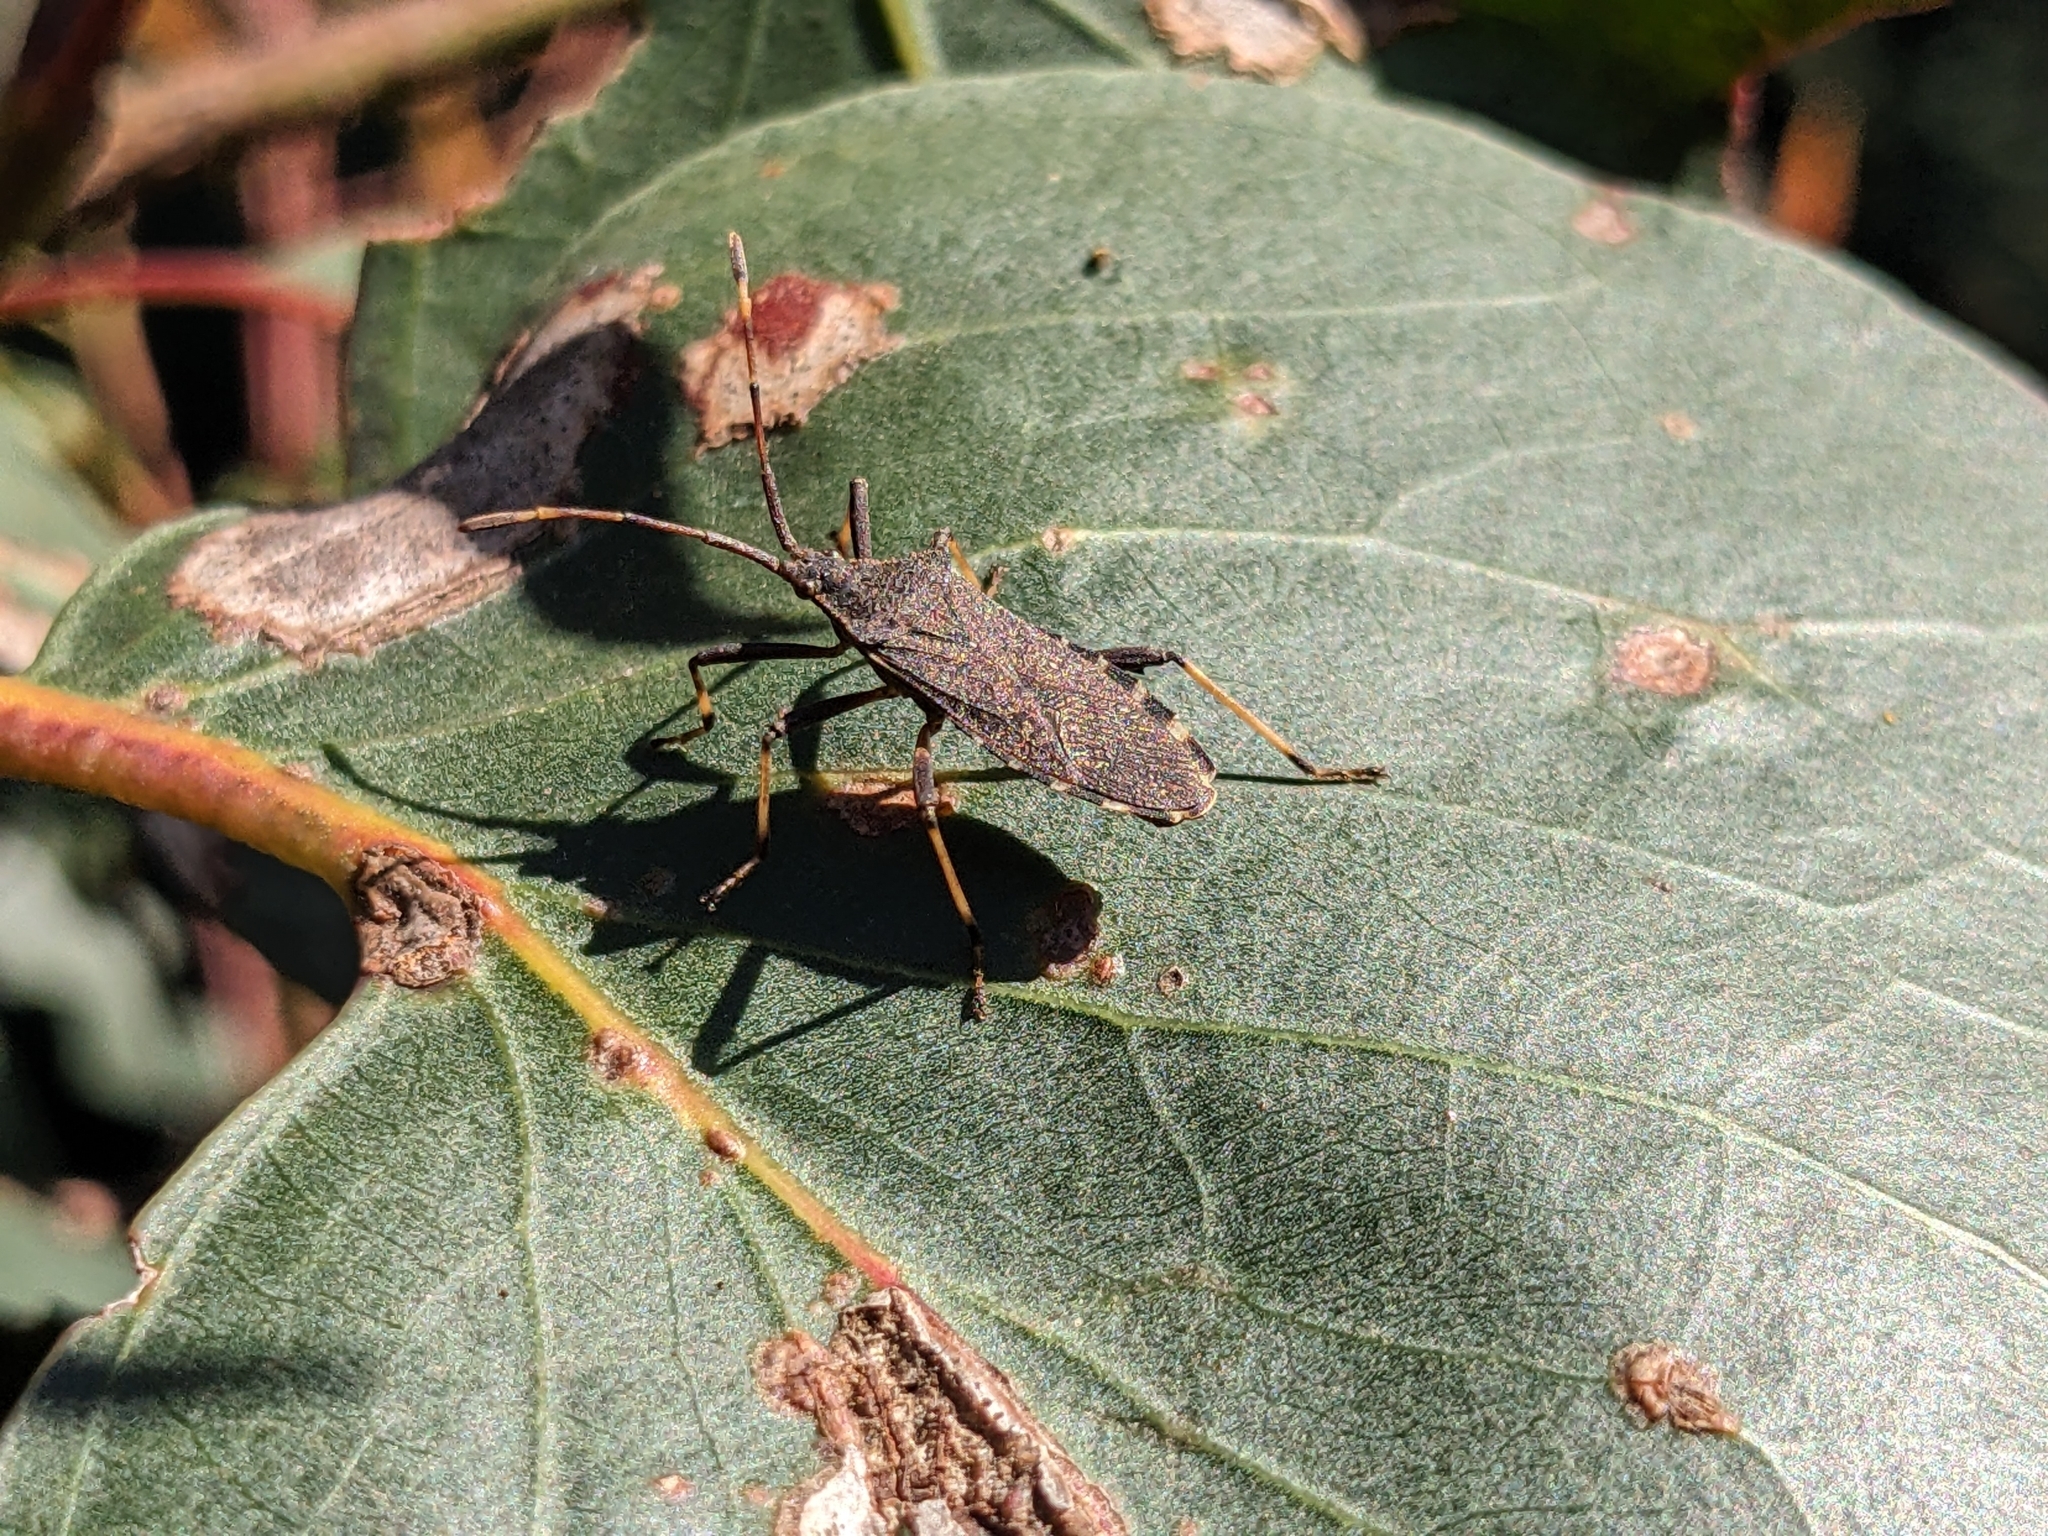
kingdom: Animalia
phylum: Arthropoda
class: Insecta
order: Hemiptera
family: Coreidae
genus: Gelonus
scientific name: Gelonus tasmanicus
